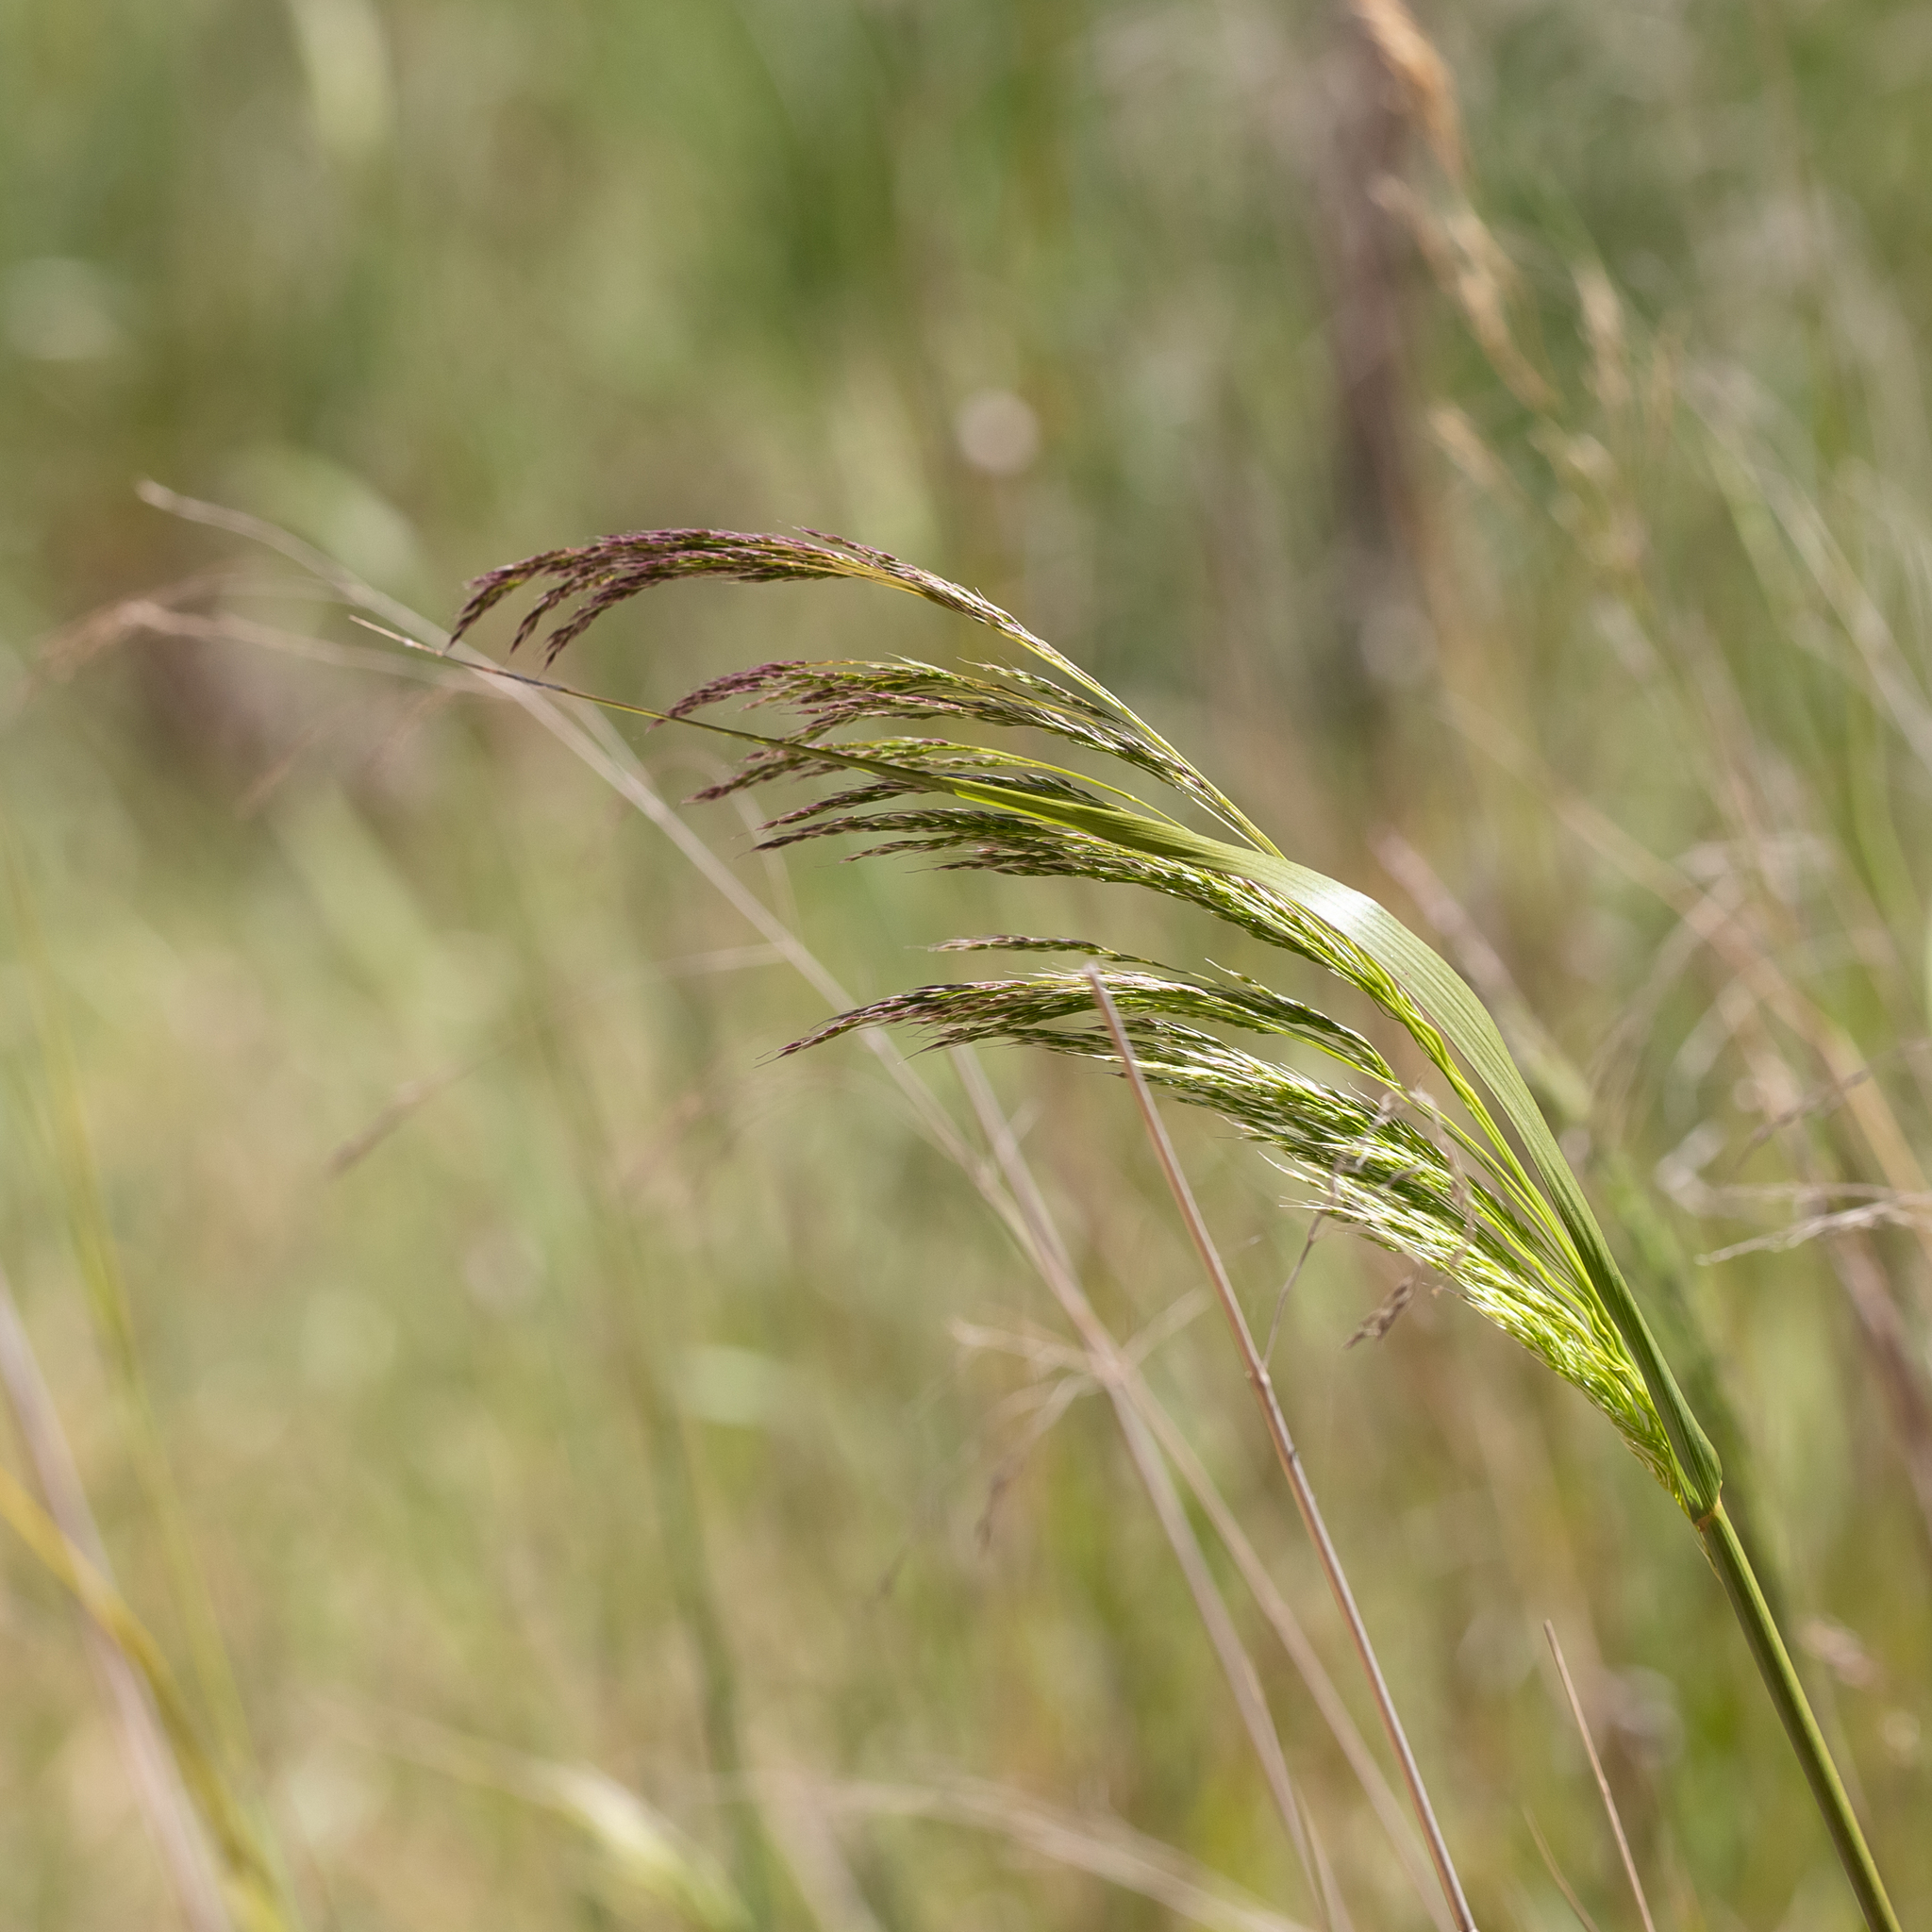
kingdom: Plantae
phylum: Tracheophyta
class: Liliopsida
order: Poales
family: Poaceae
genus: Oloptum
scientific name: Oloptum miliaceum
